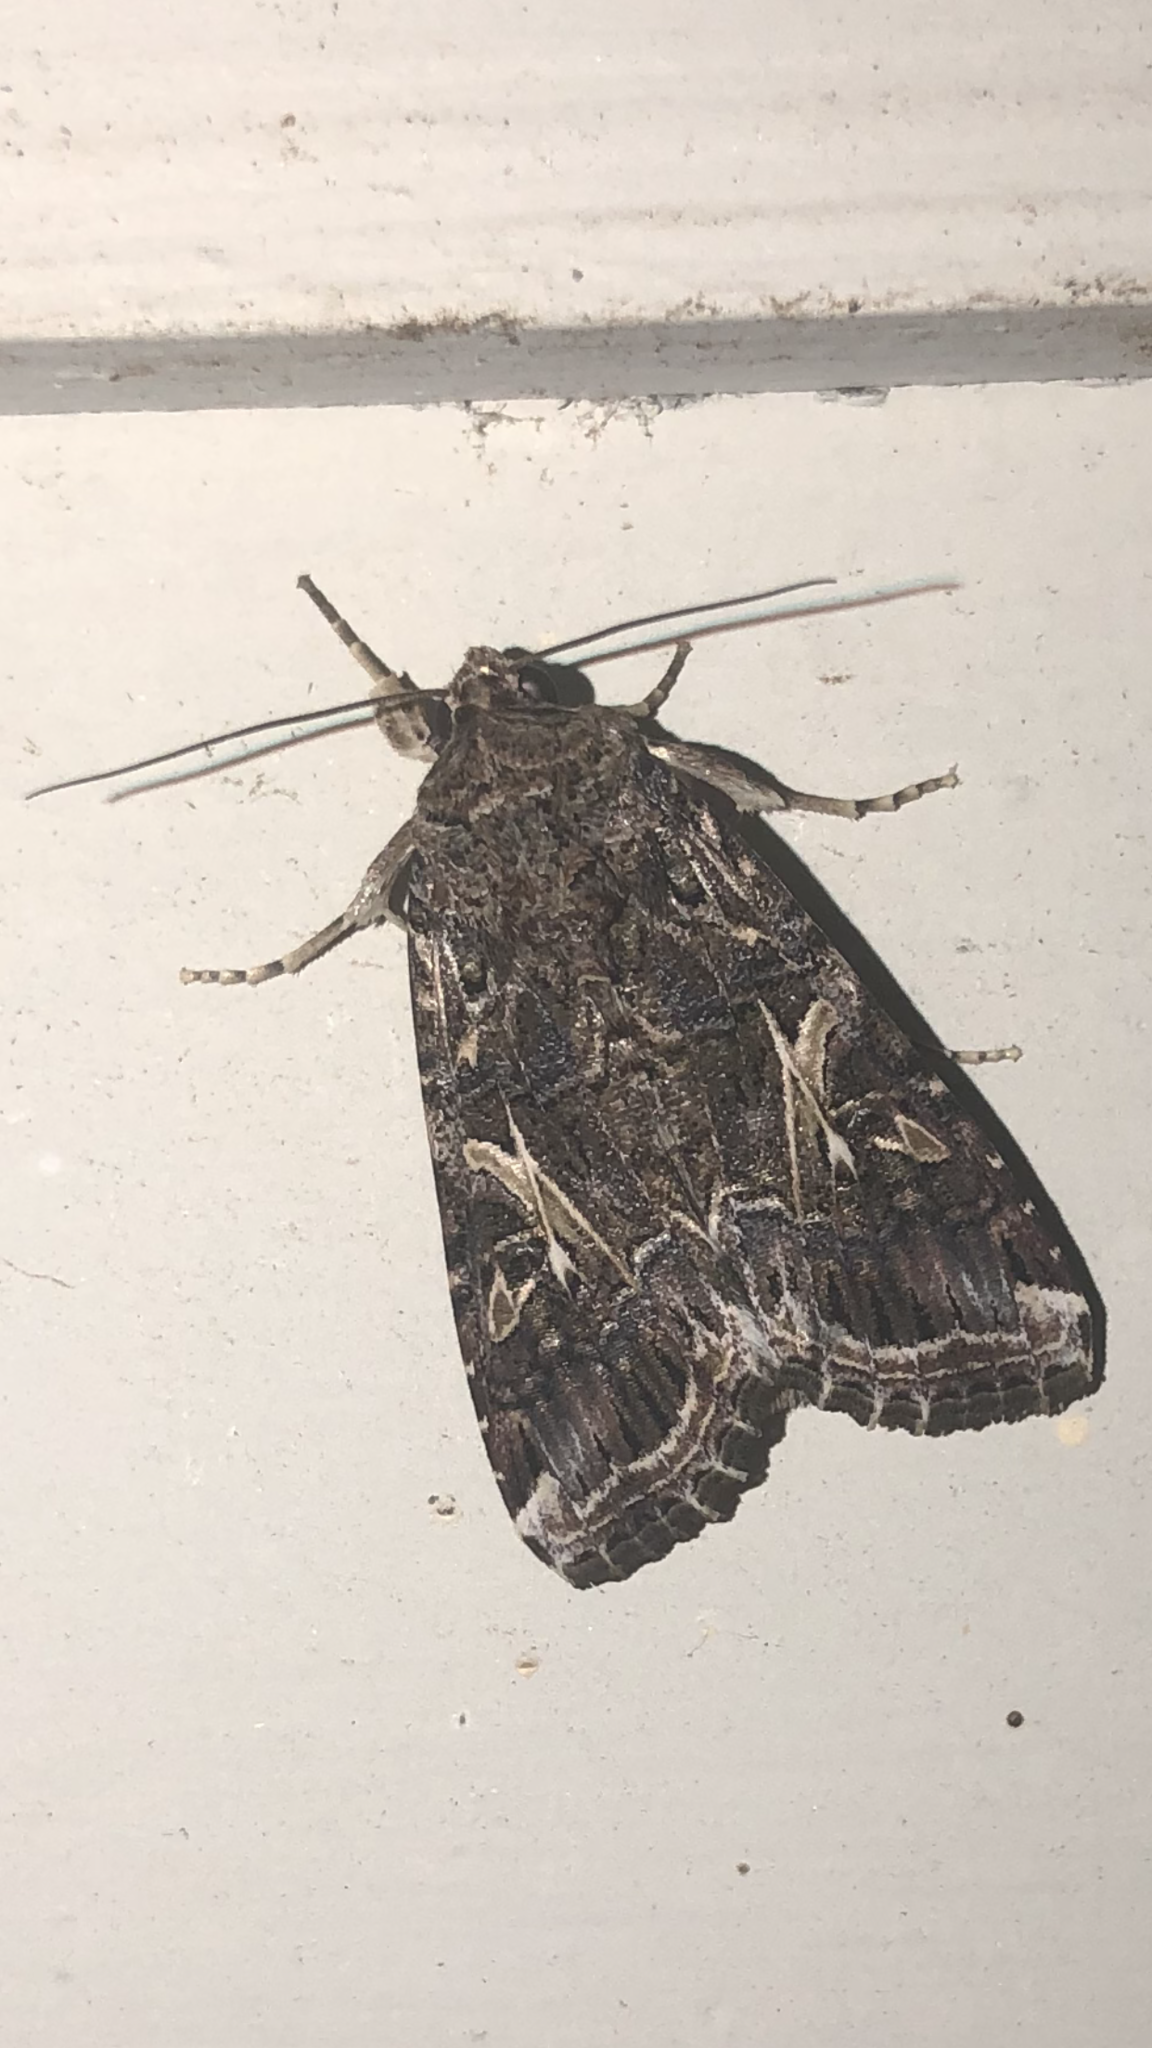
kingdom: Animalia
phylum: Arthropoda
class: Insecta
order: Lepidoptera
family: Noctuidae
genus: Spodoptera
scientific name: Spodoptera ornithogalli
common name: Yellow-striped armyworm
